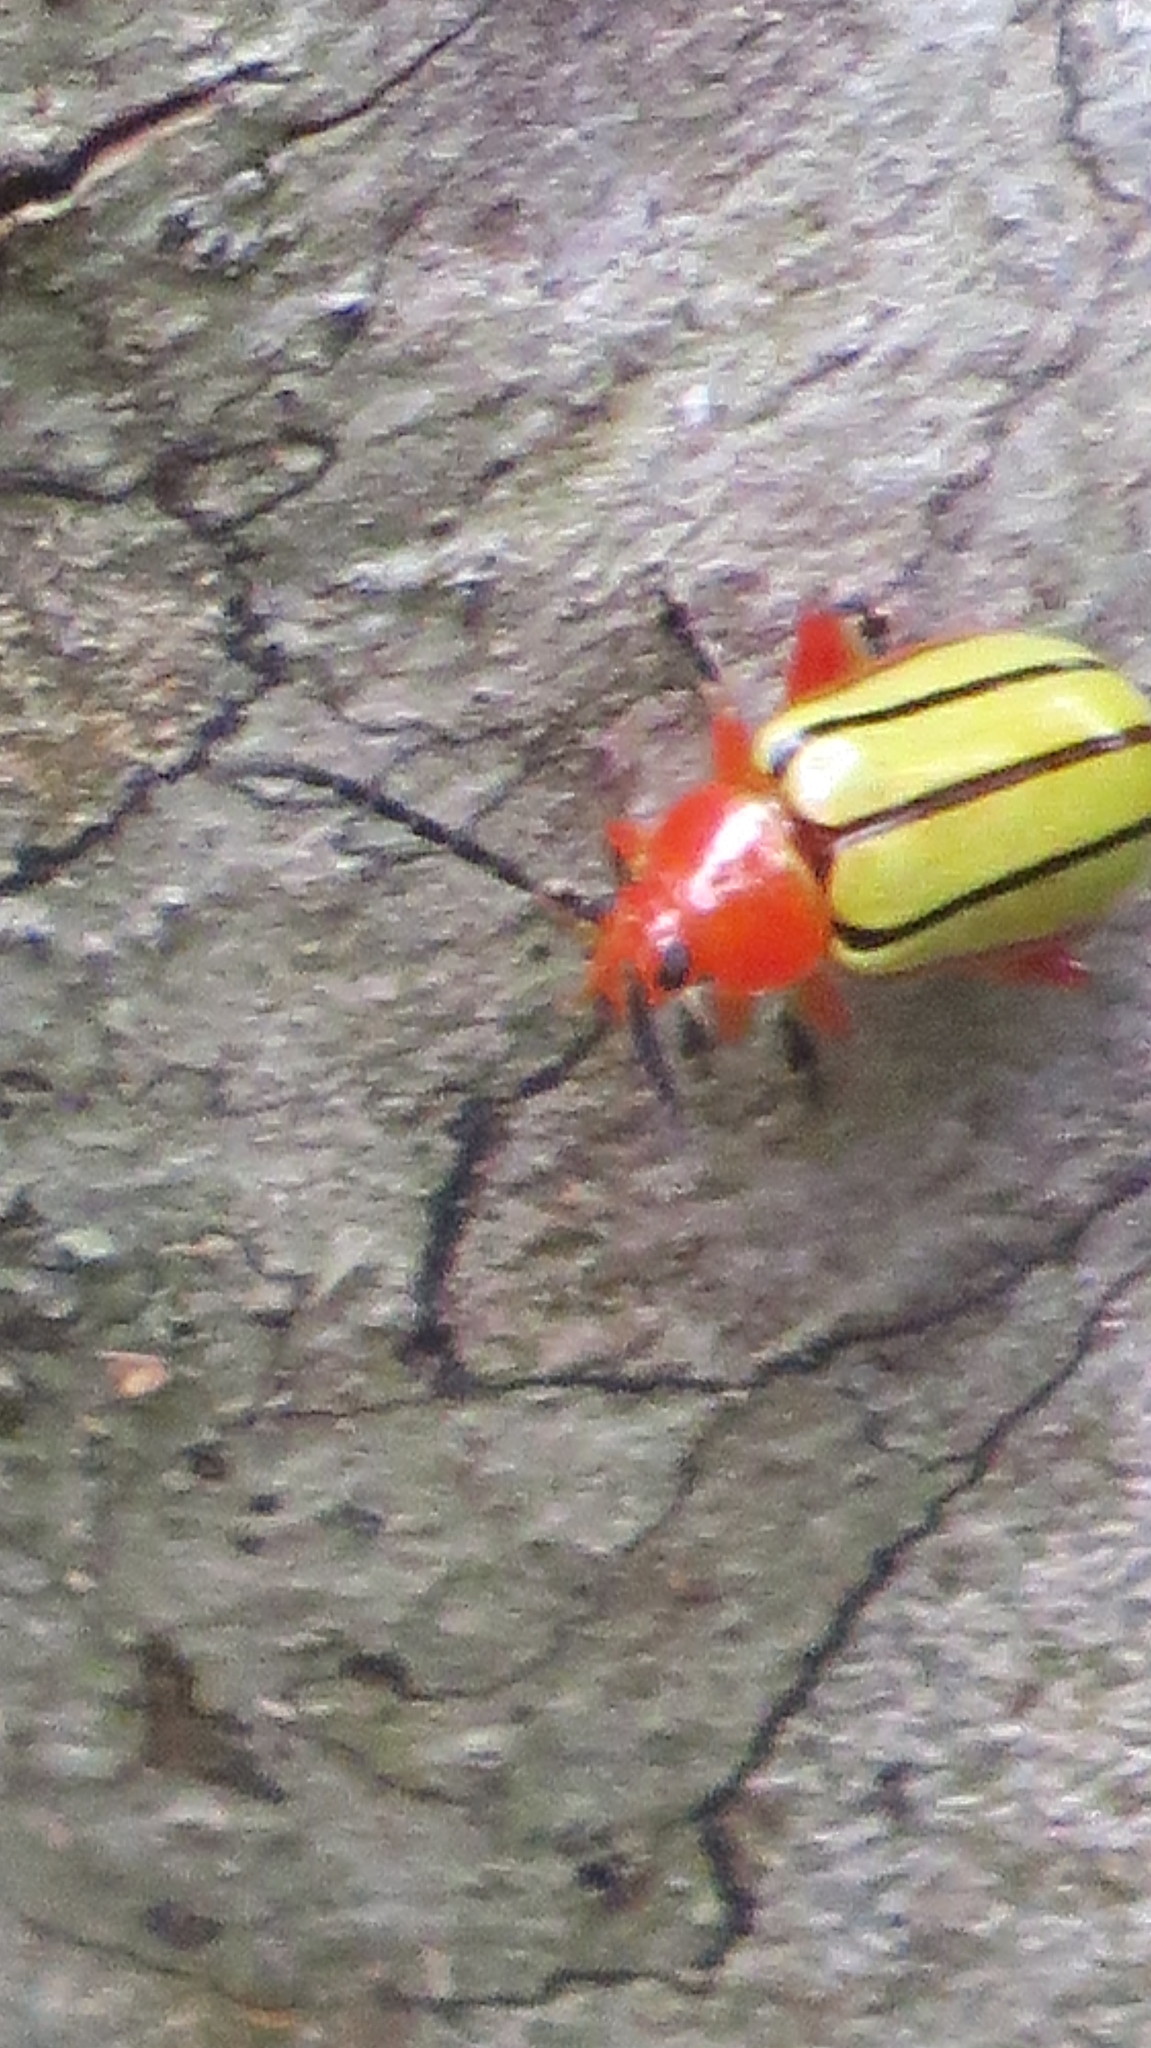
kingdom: Animalia
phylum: Arthropoda
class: Insecta
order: Coleoptera
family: Chrysomelidae
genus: Disonycha
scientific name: Disonycha stenosticha
